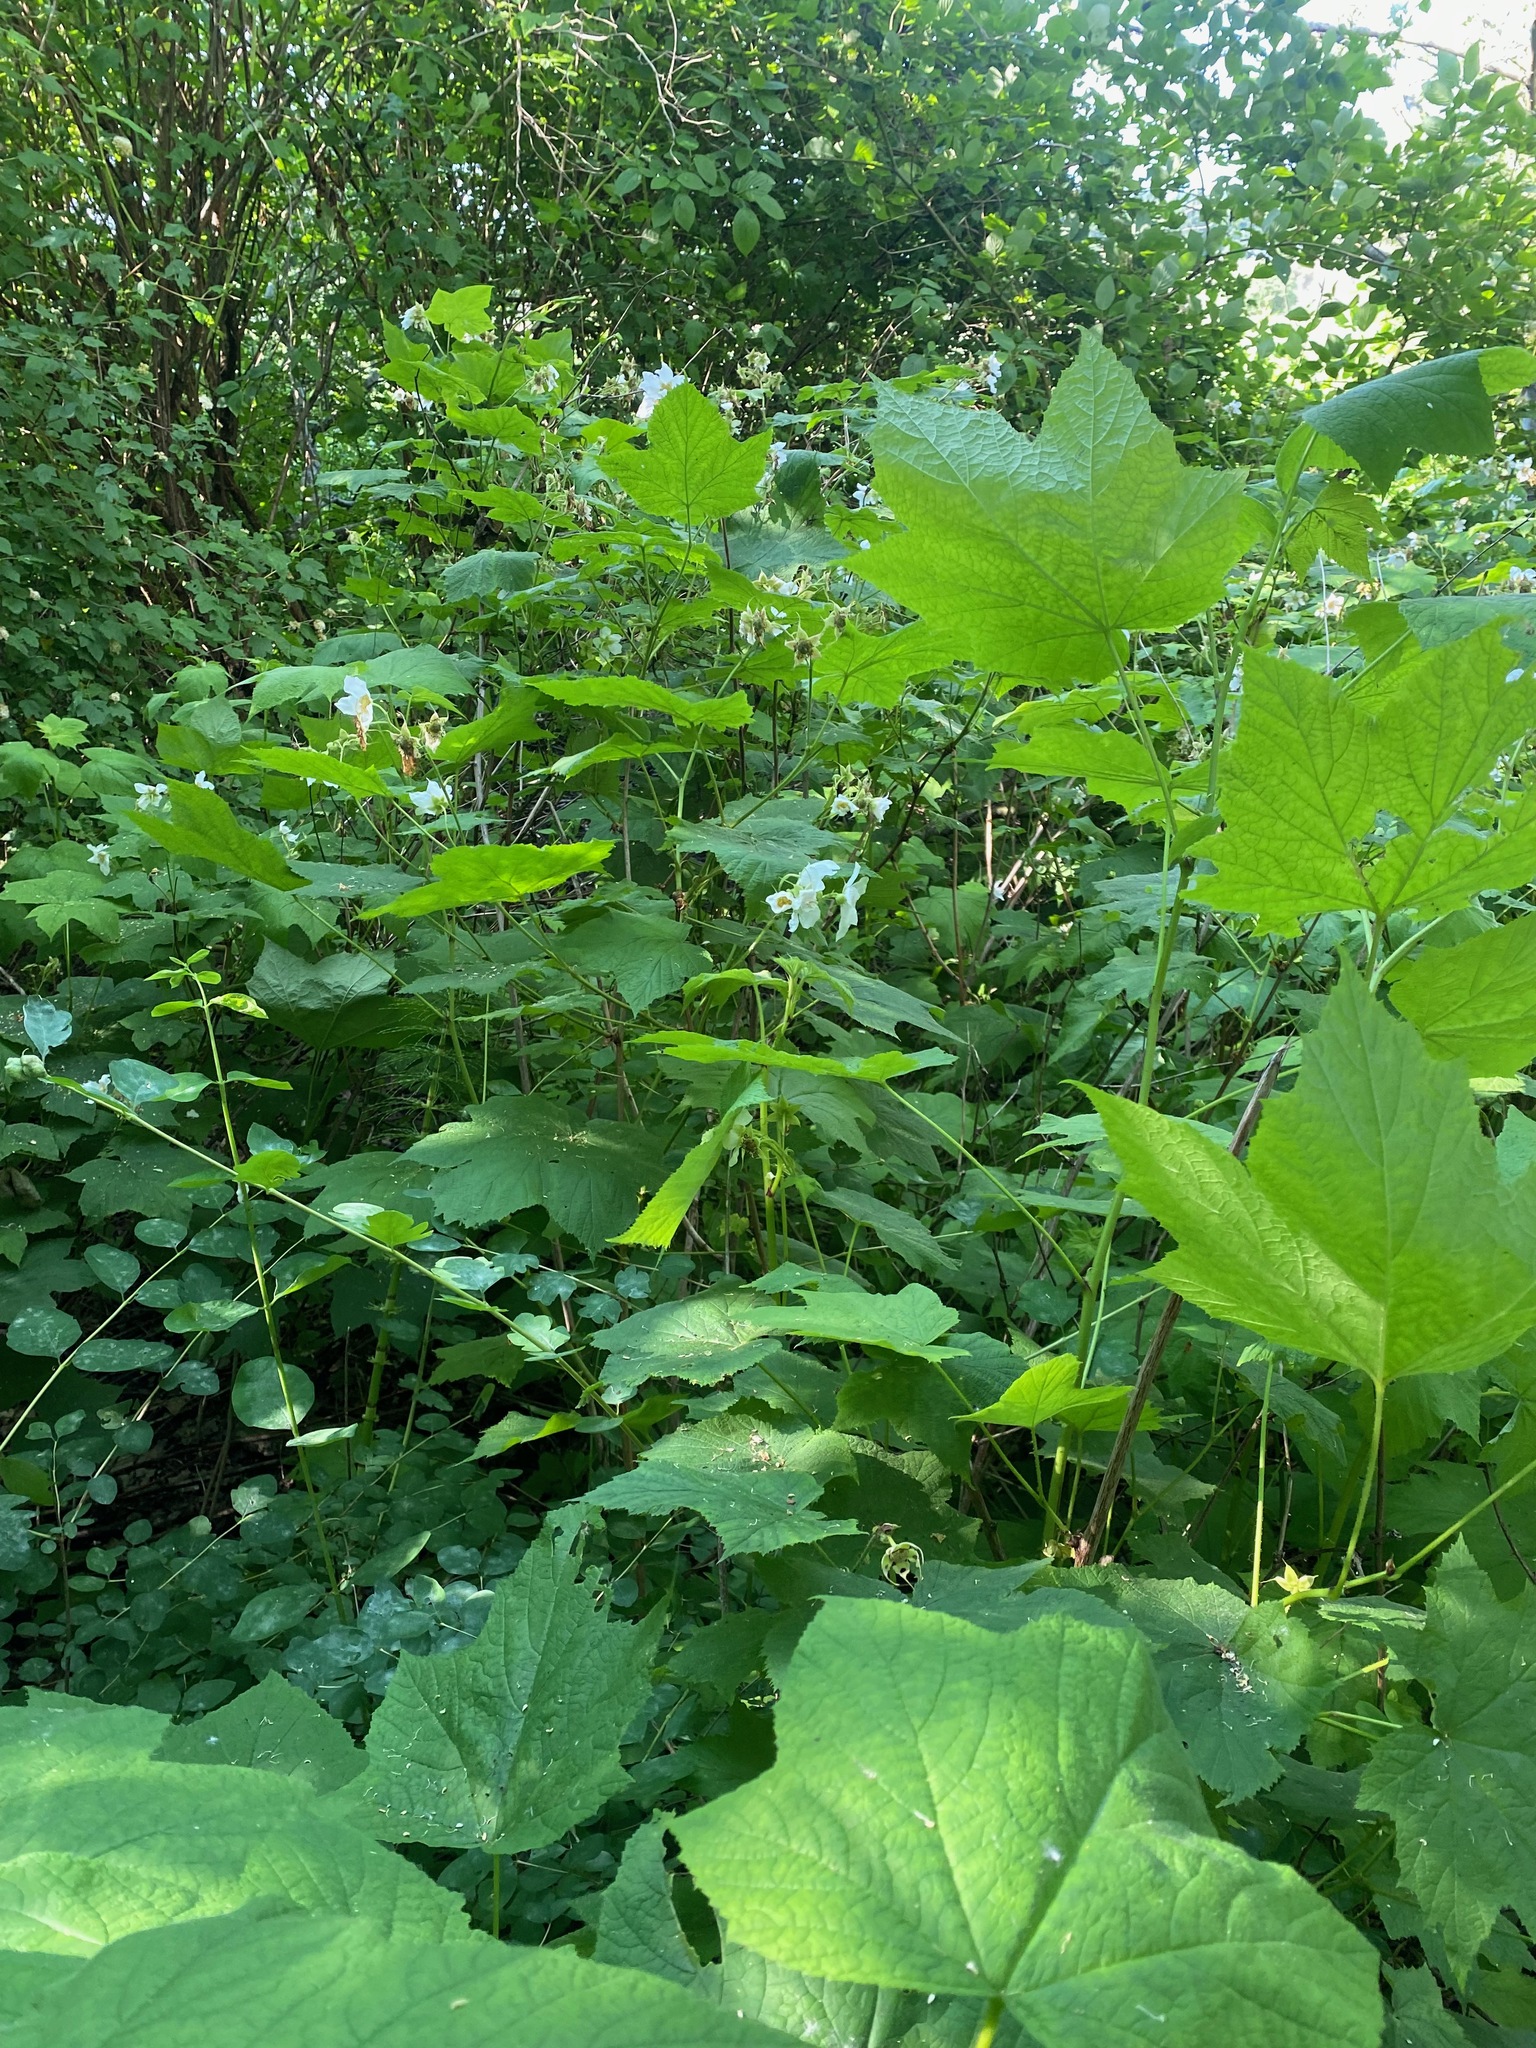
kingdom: Plantae
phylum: Tracheophyta
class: Magnoliopsida
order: Rosales
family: Rosaceae
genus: Rubus
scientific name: Rubus parviflorus
